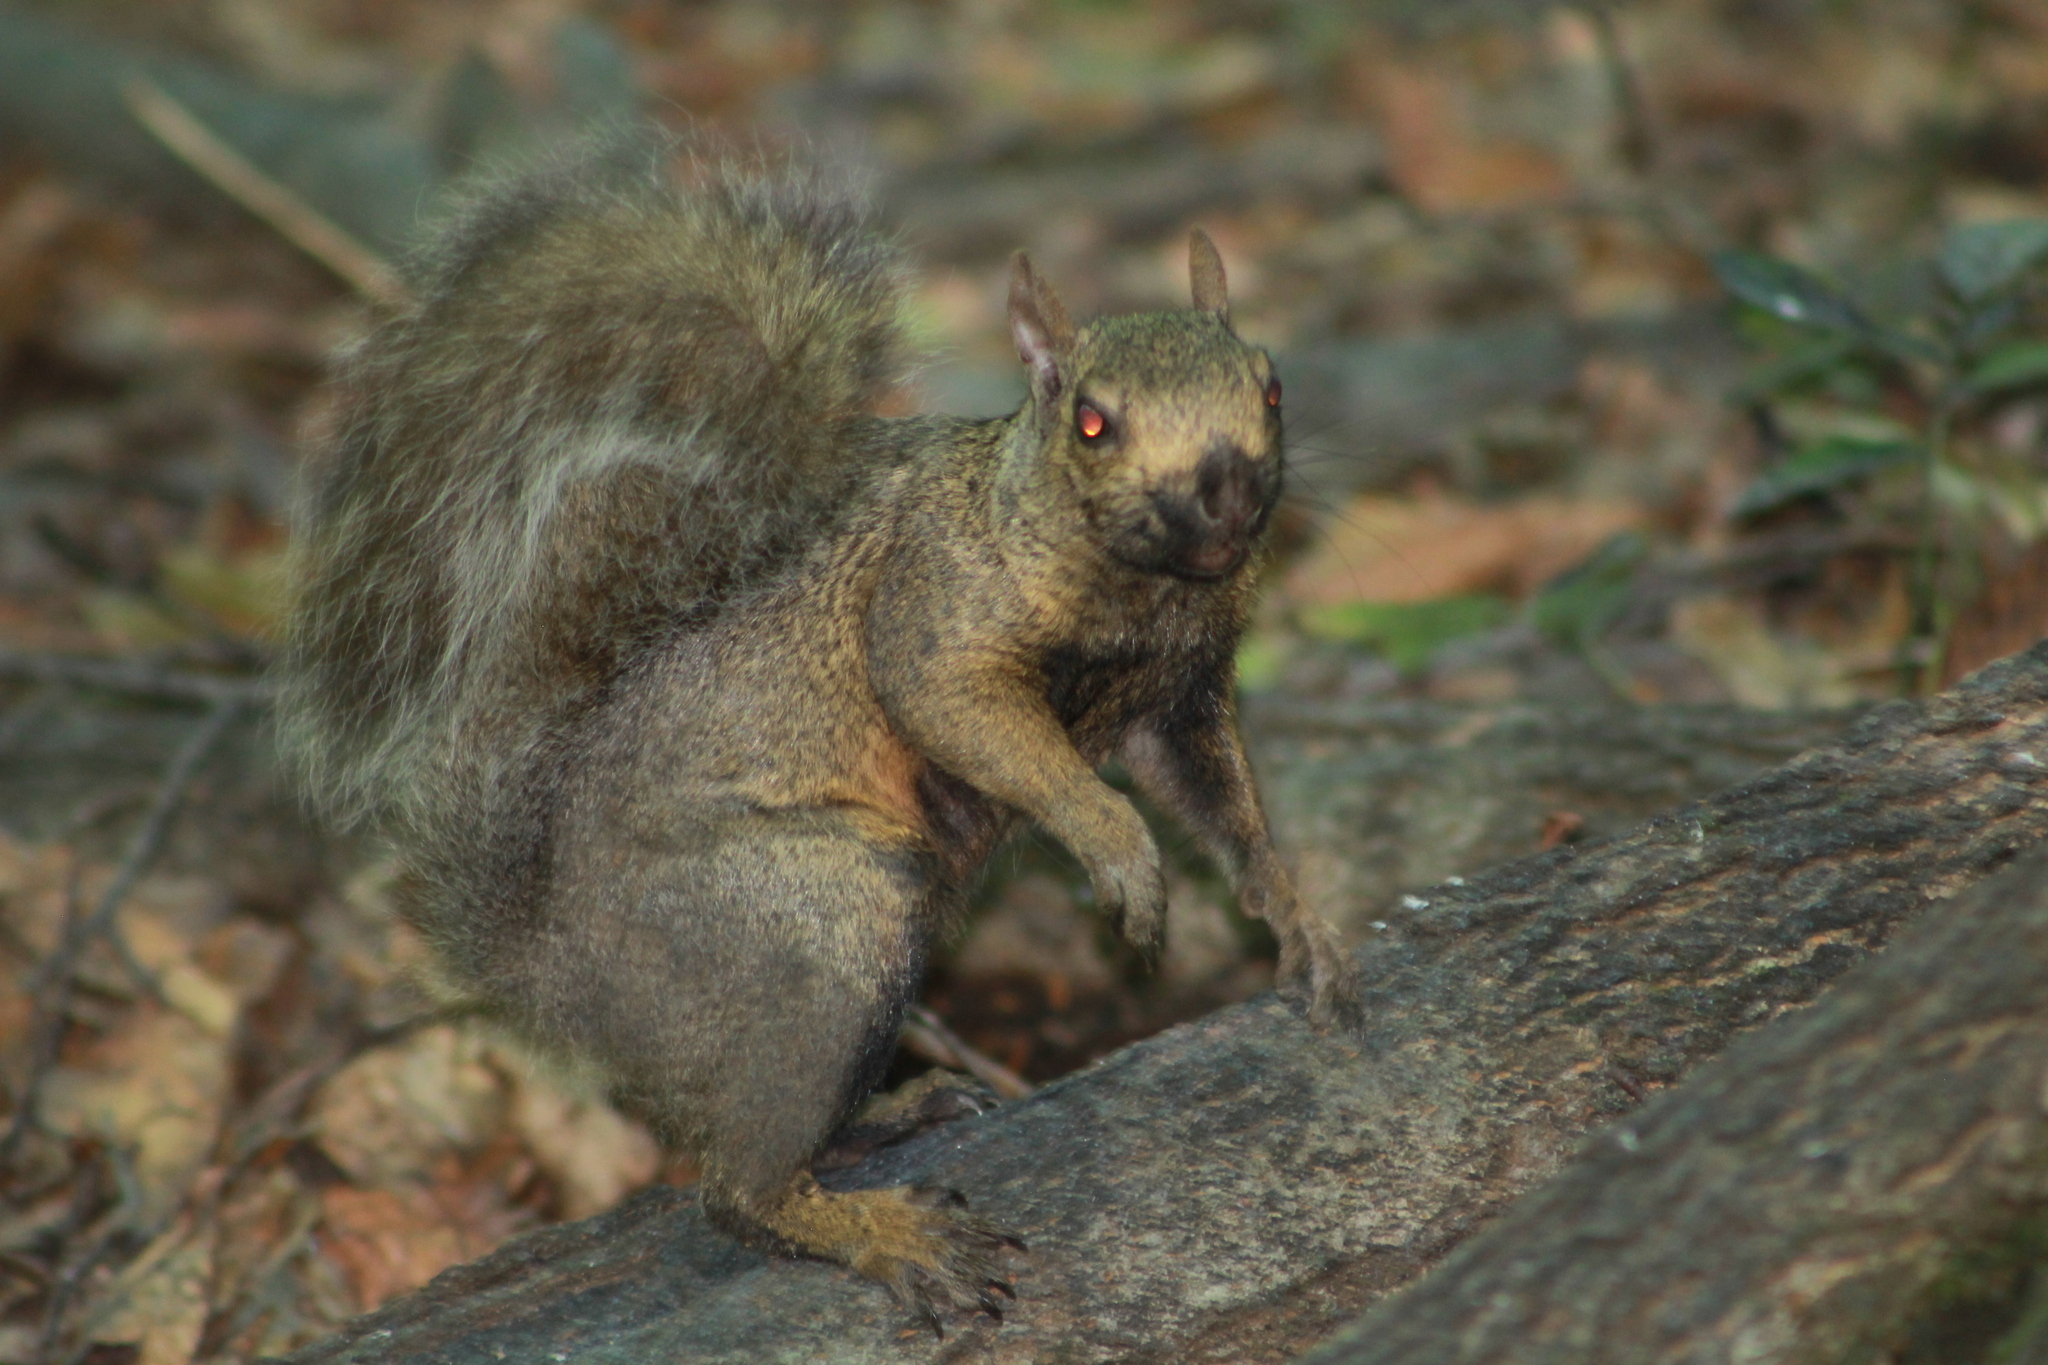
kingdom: Animalia
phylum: Chordata
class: Mammalia
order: Rodentia
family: Sciuridae
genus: Sciurus
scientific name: Sciurus carolinensis
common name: Eastern gray squirrel
